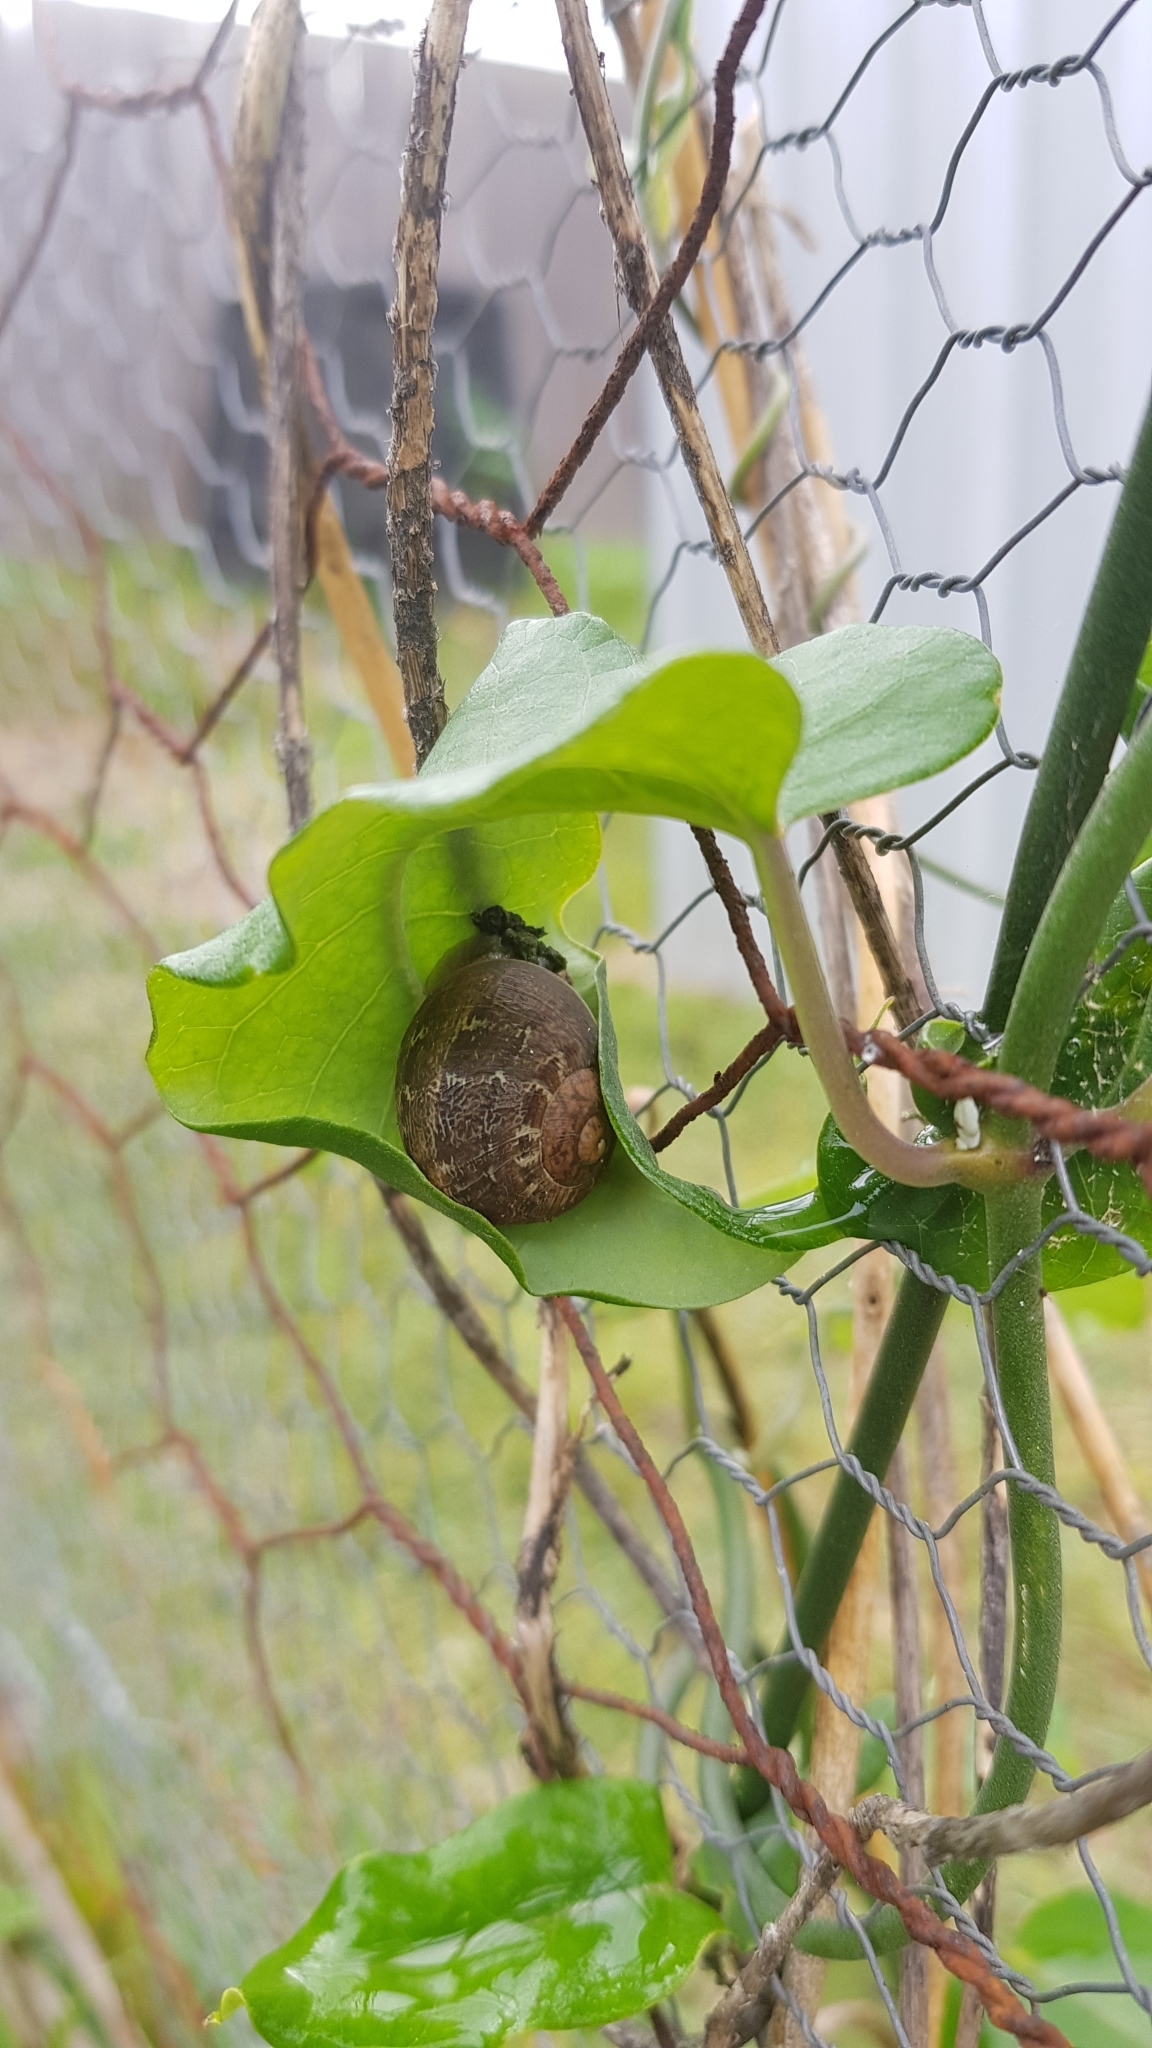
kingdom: Animalia
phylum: Mollusca
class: Gastropoda
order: Stylommatophora
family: Helicidae
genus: Cornu
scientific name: Cornu aspersum
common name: Brown garden snail
